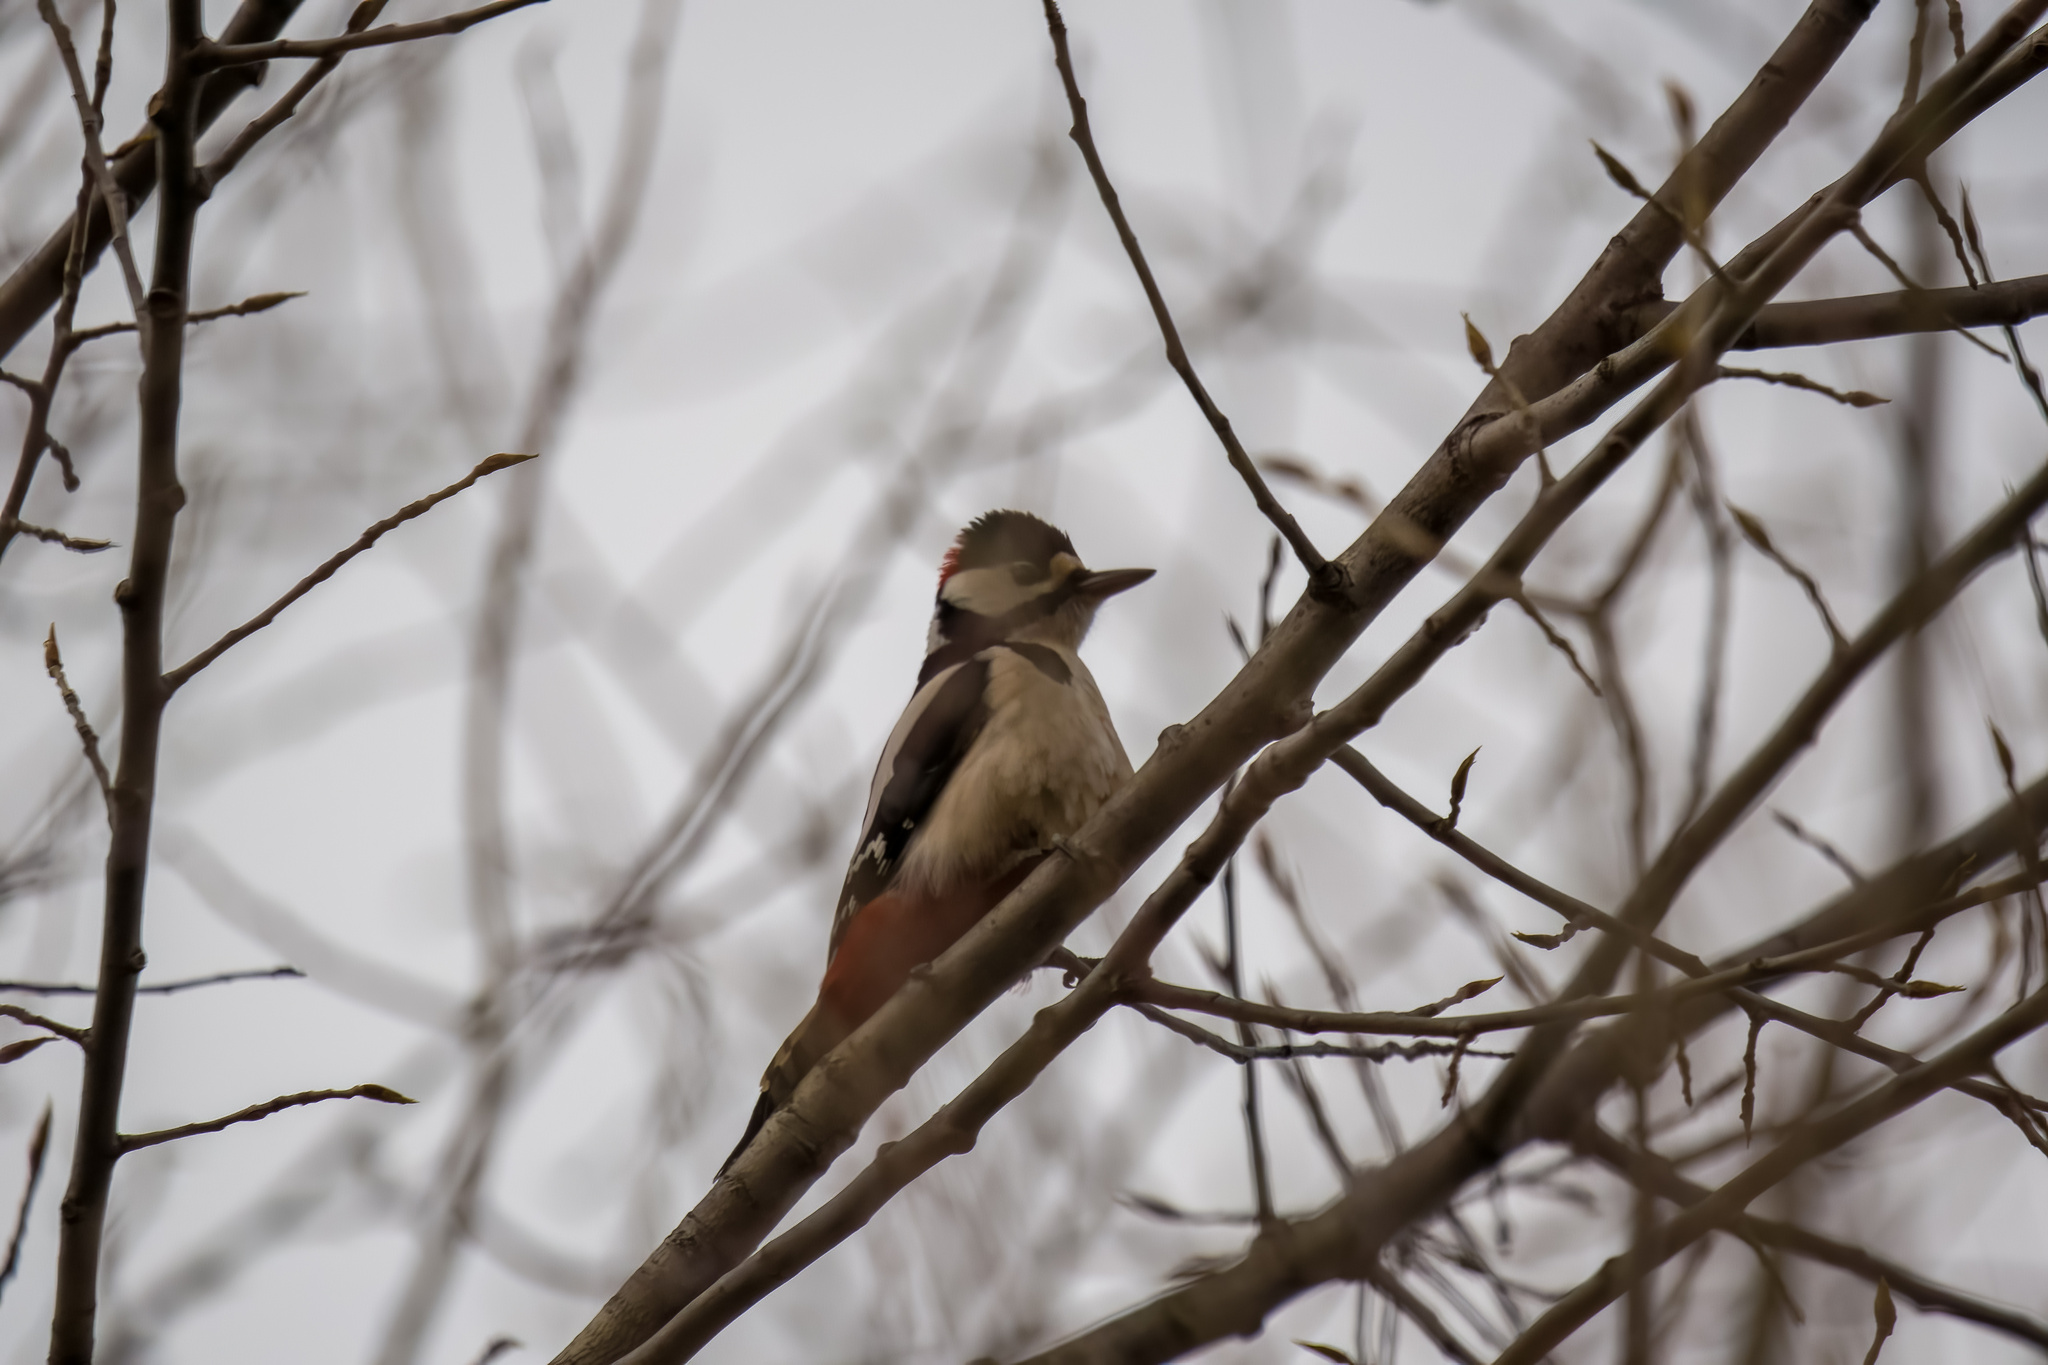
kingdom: Animalia
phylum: Chordata
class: Aves
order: Piciformes
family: Picidae
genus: Dendrocopos
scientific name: Dendrocopos major
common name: Great spotted woodpecker
